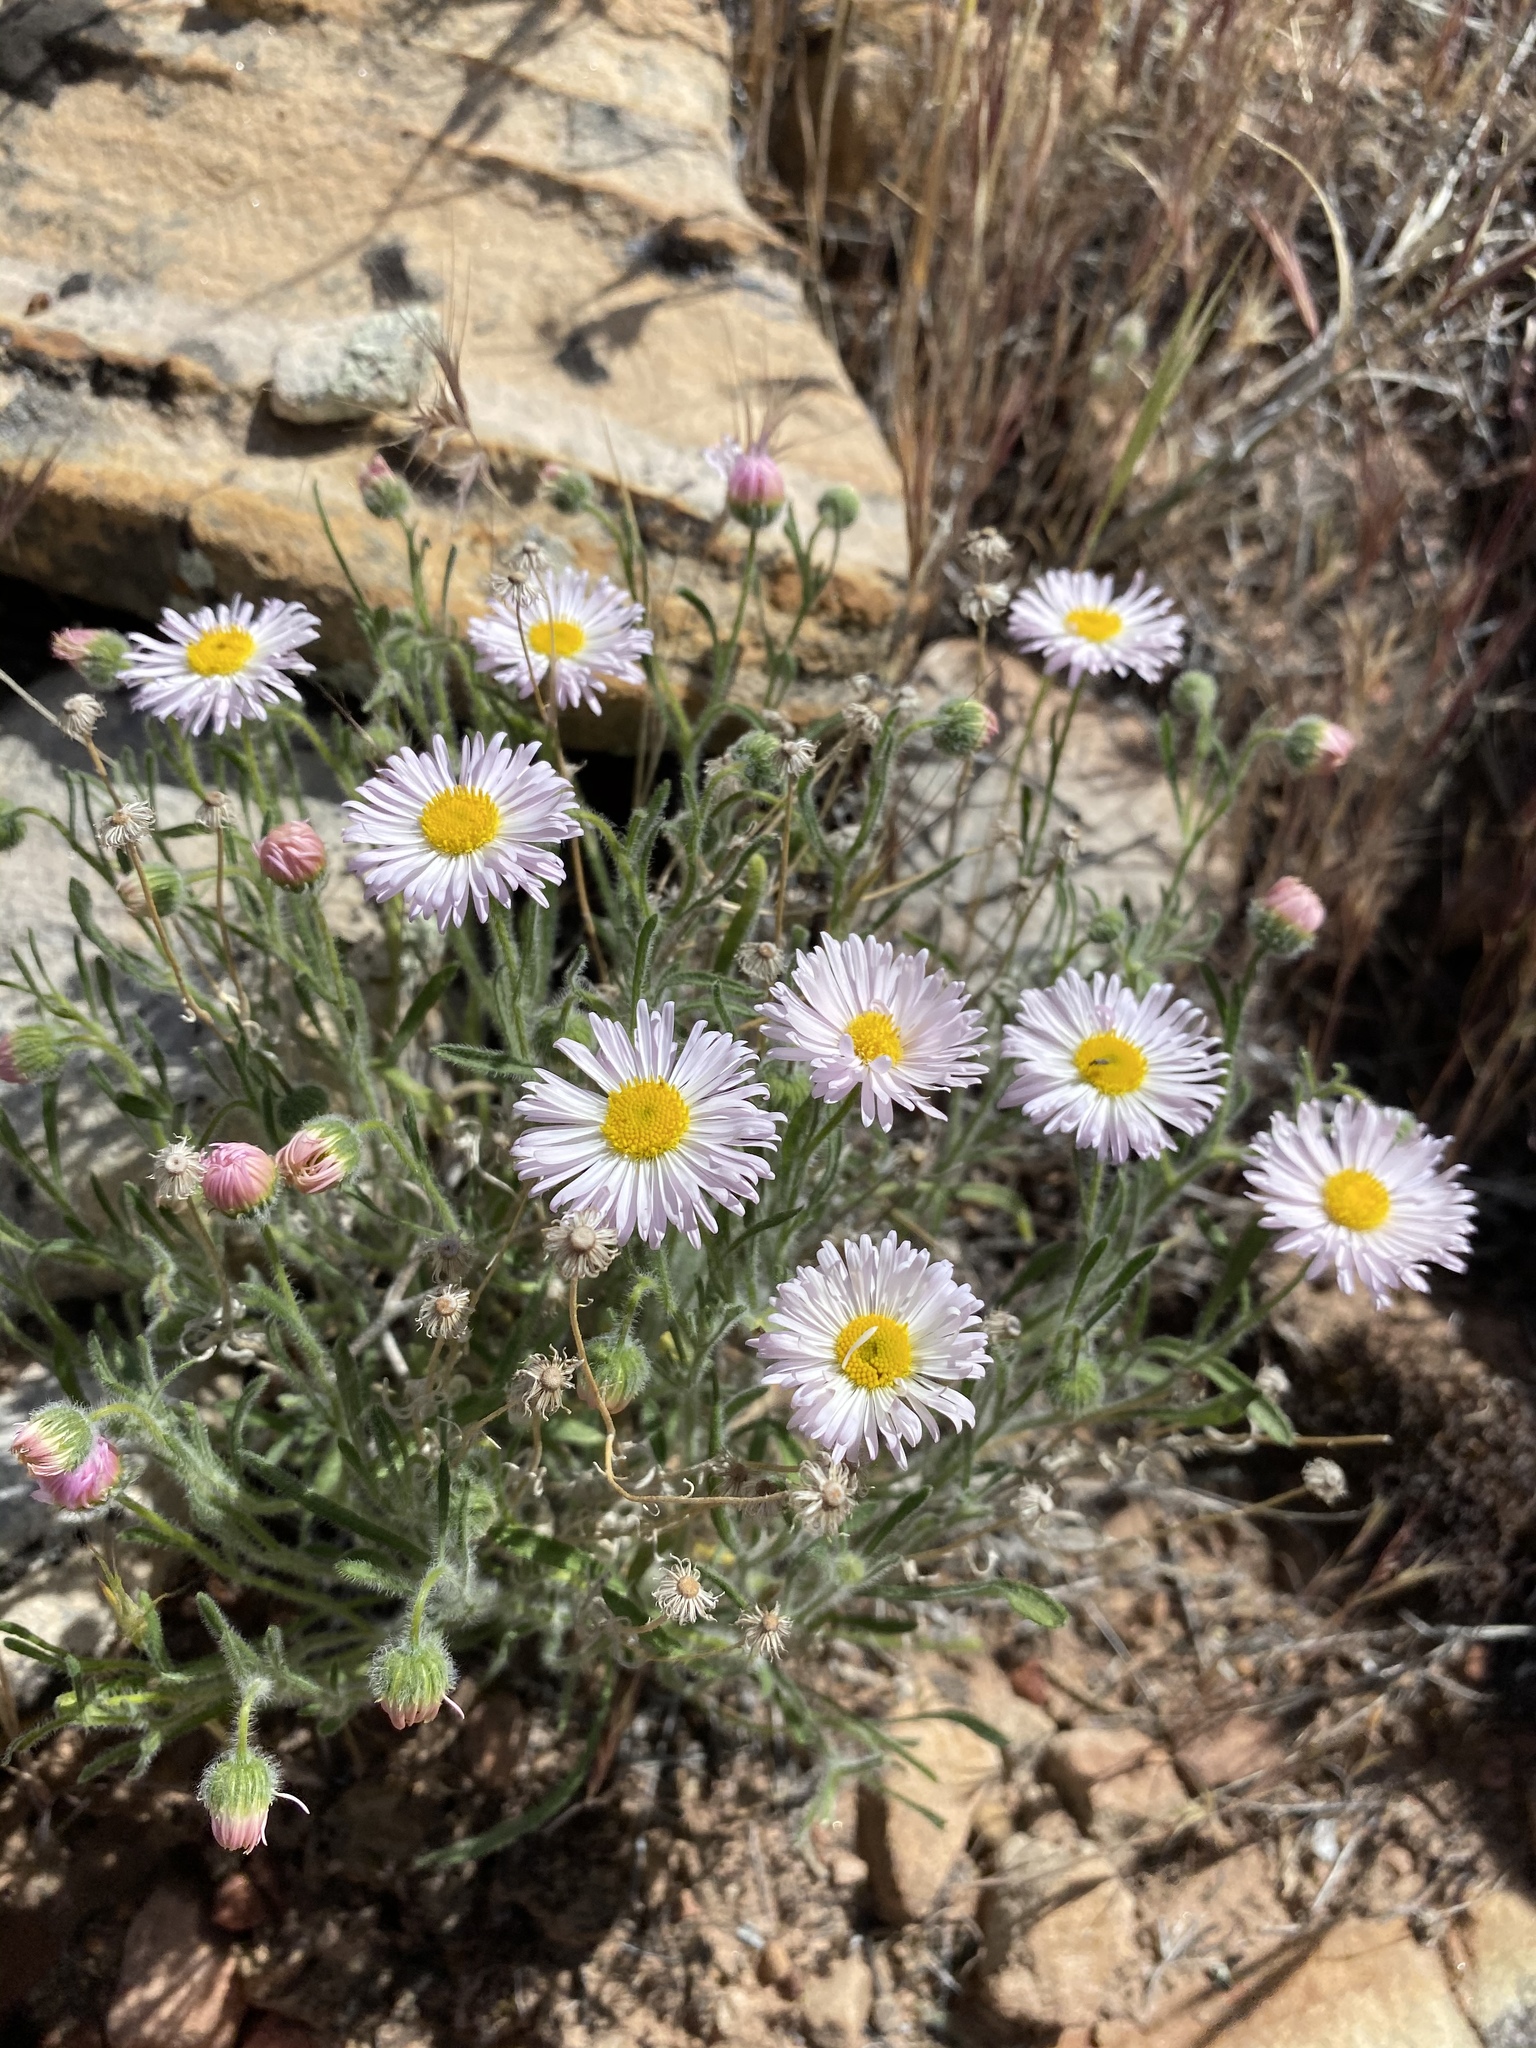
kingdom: Plantae
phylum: Tracheophyta
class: Magnoliopsida
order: Asterales
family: Asteraceae
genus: Erigeron
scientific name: Erigeron concinnus
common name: Navajo fleabane
